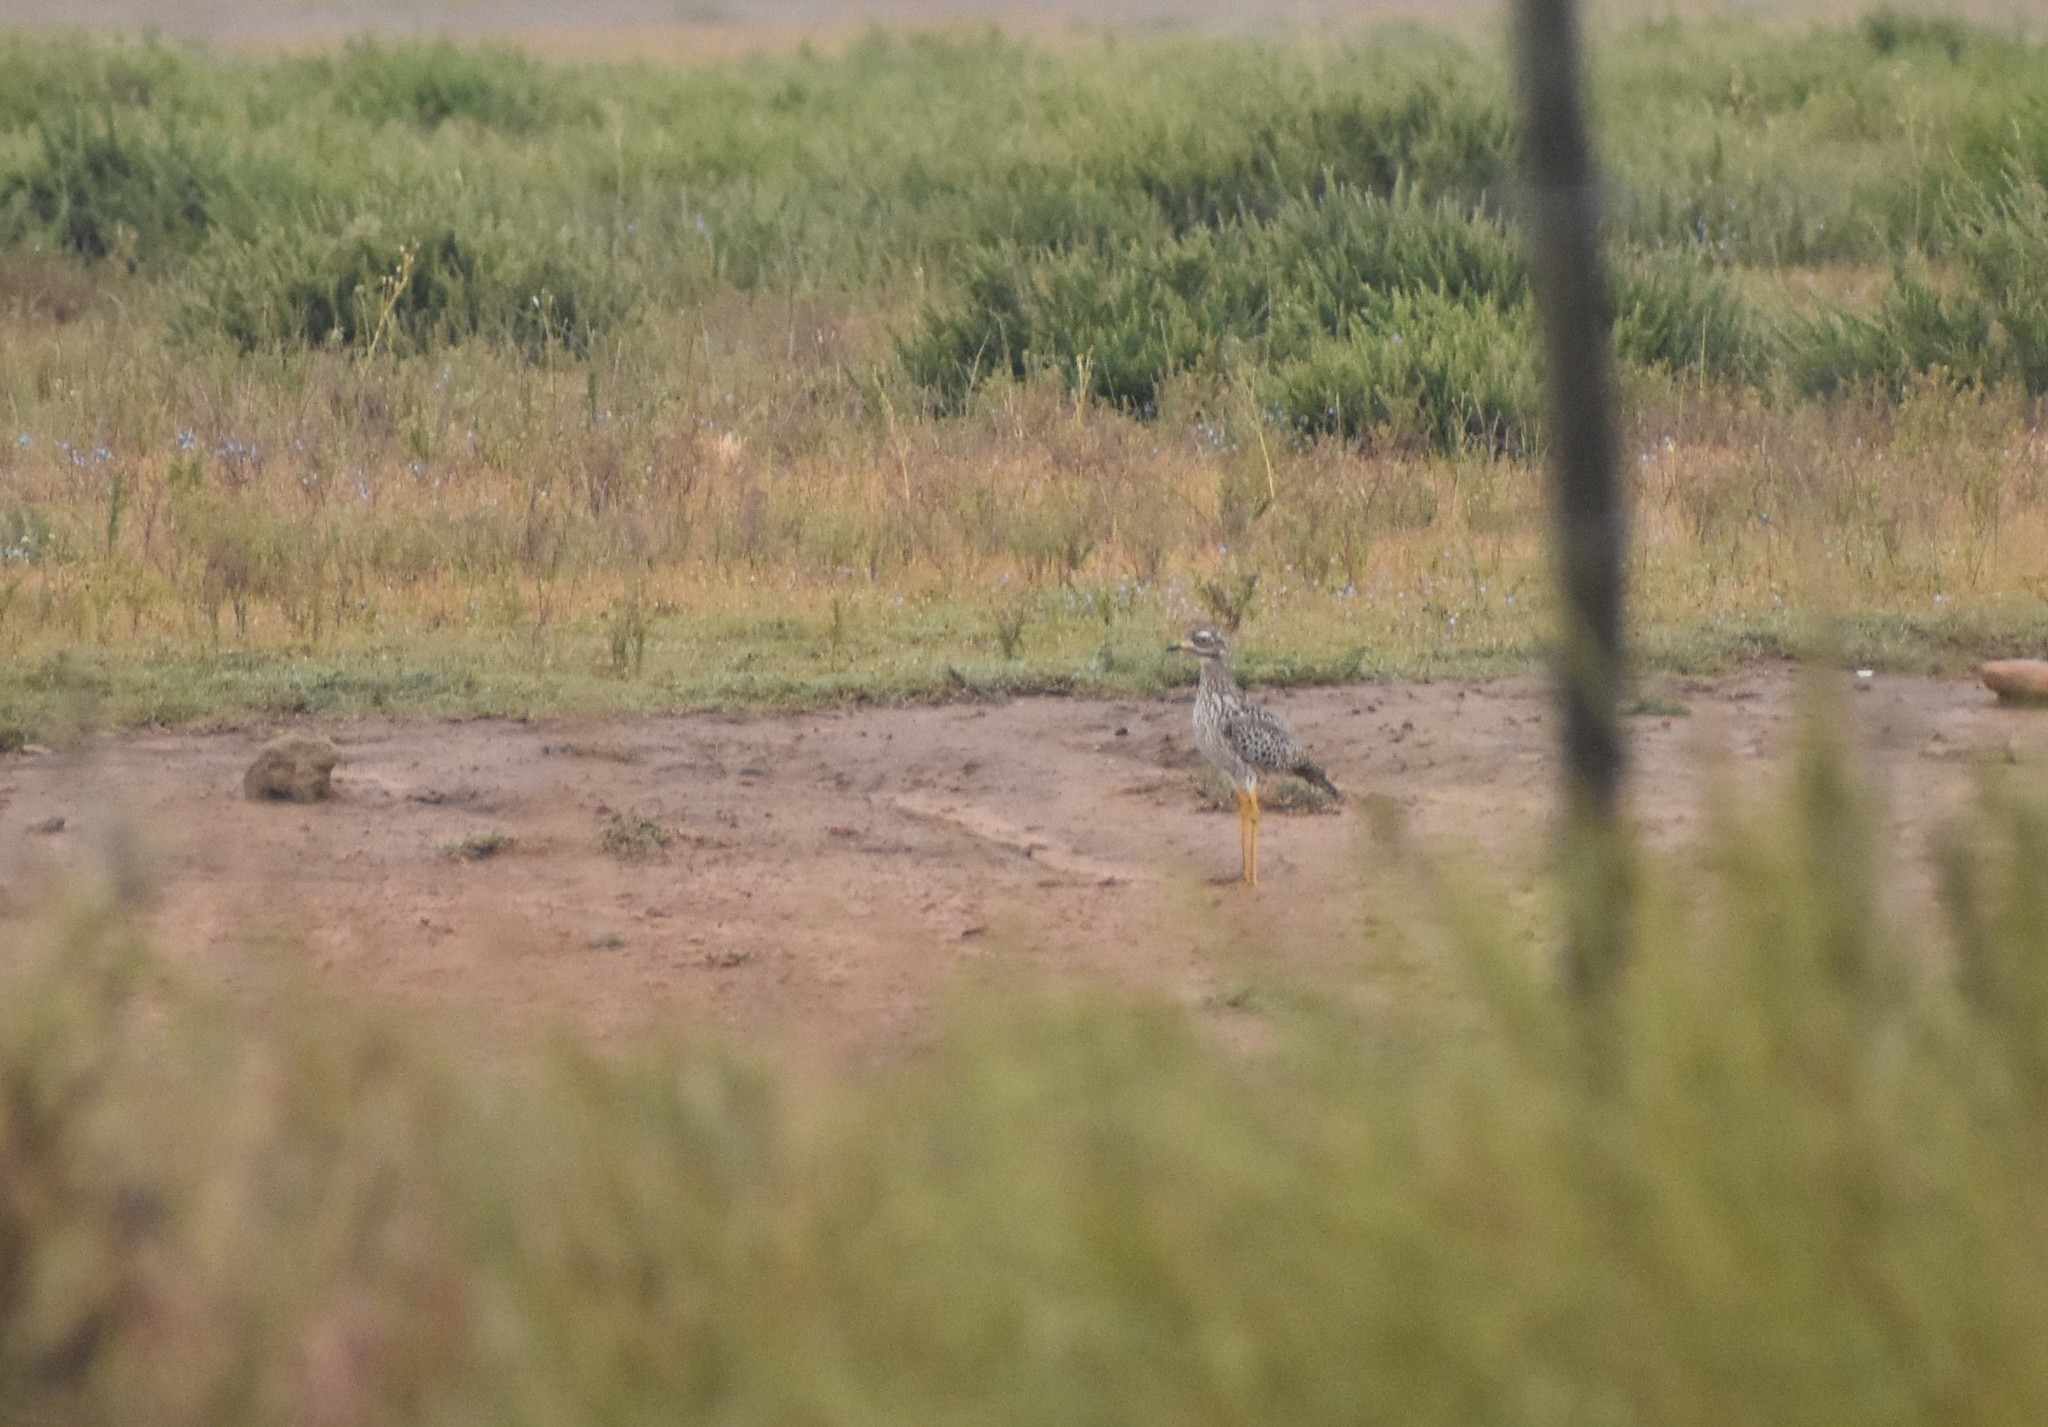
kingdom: Animalia
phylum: Chordata
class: Aves
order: Charadriiformes
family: Burhinidae
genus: Burhinus
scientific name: Burhinus capensis
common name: Spotted thick-knee
